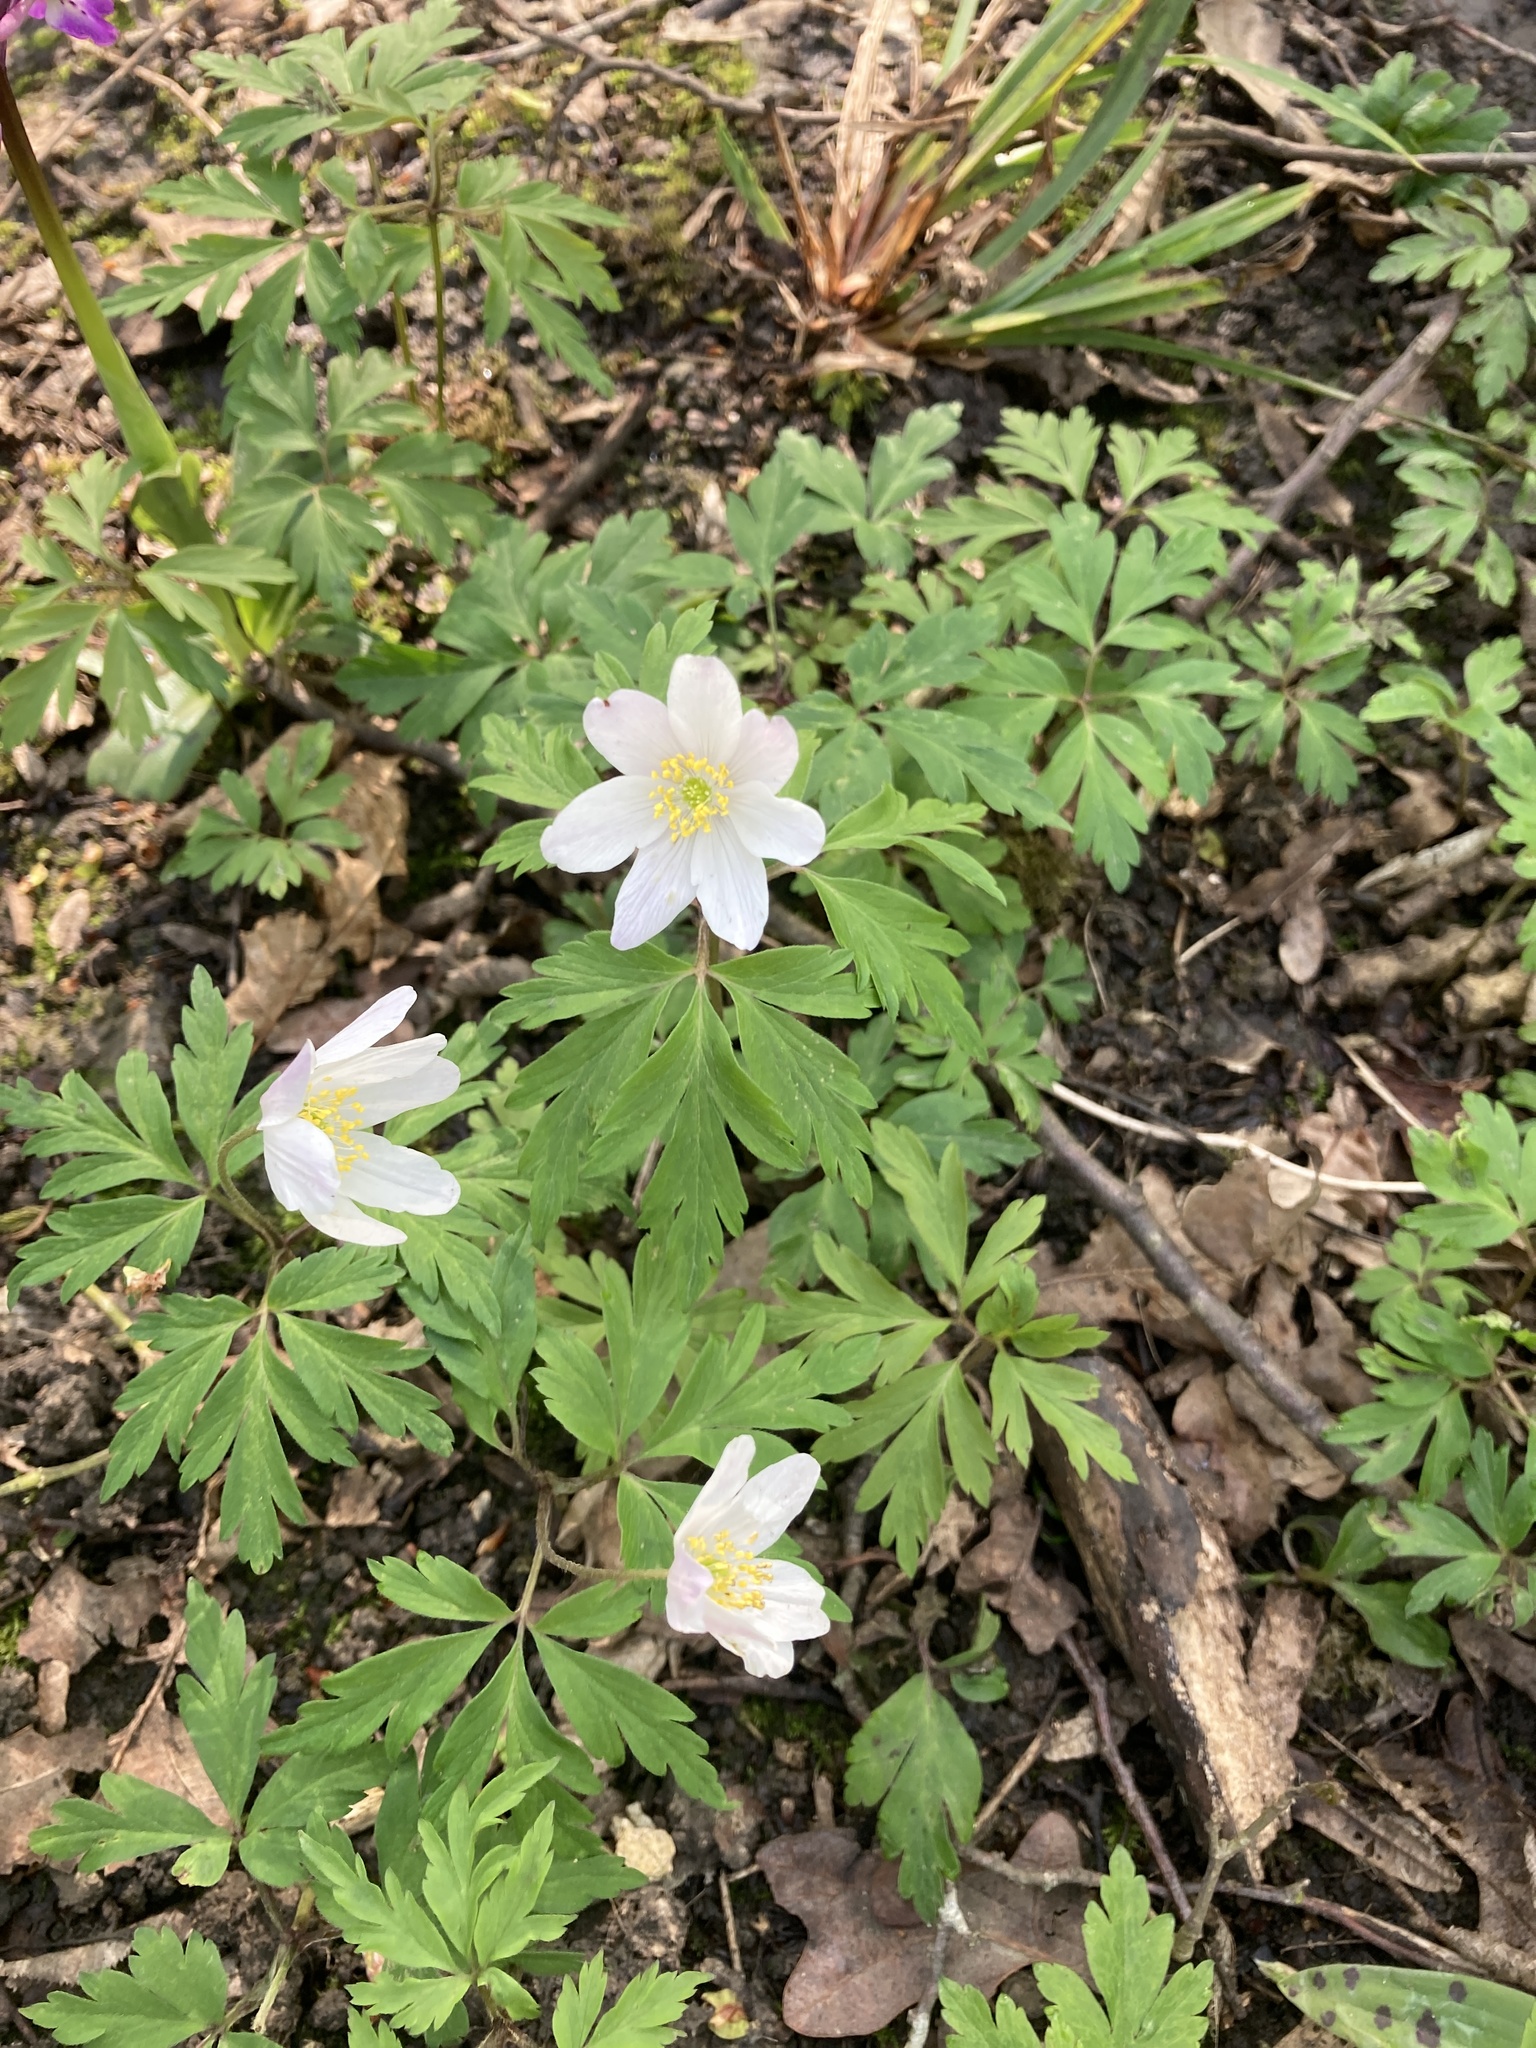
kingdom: Plantae
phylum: Tracheophyta
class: Magnoliopsida
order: Ranunculales
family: Ranunculaceae
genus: Anemone
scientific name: Anemone nemorosa
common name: Wood anemone
